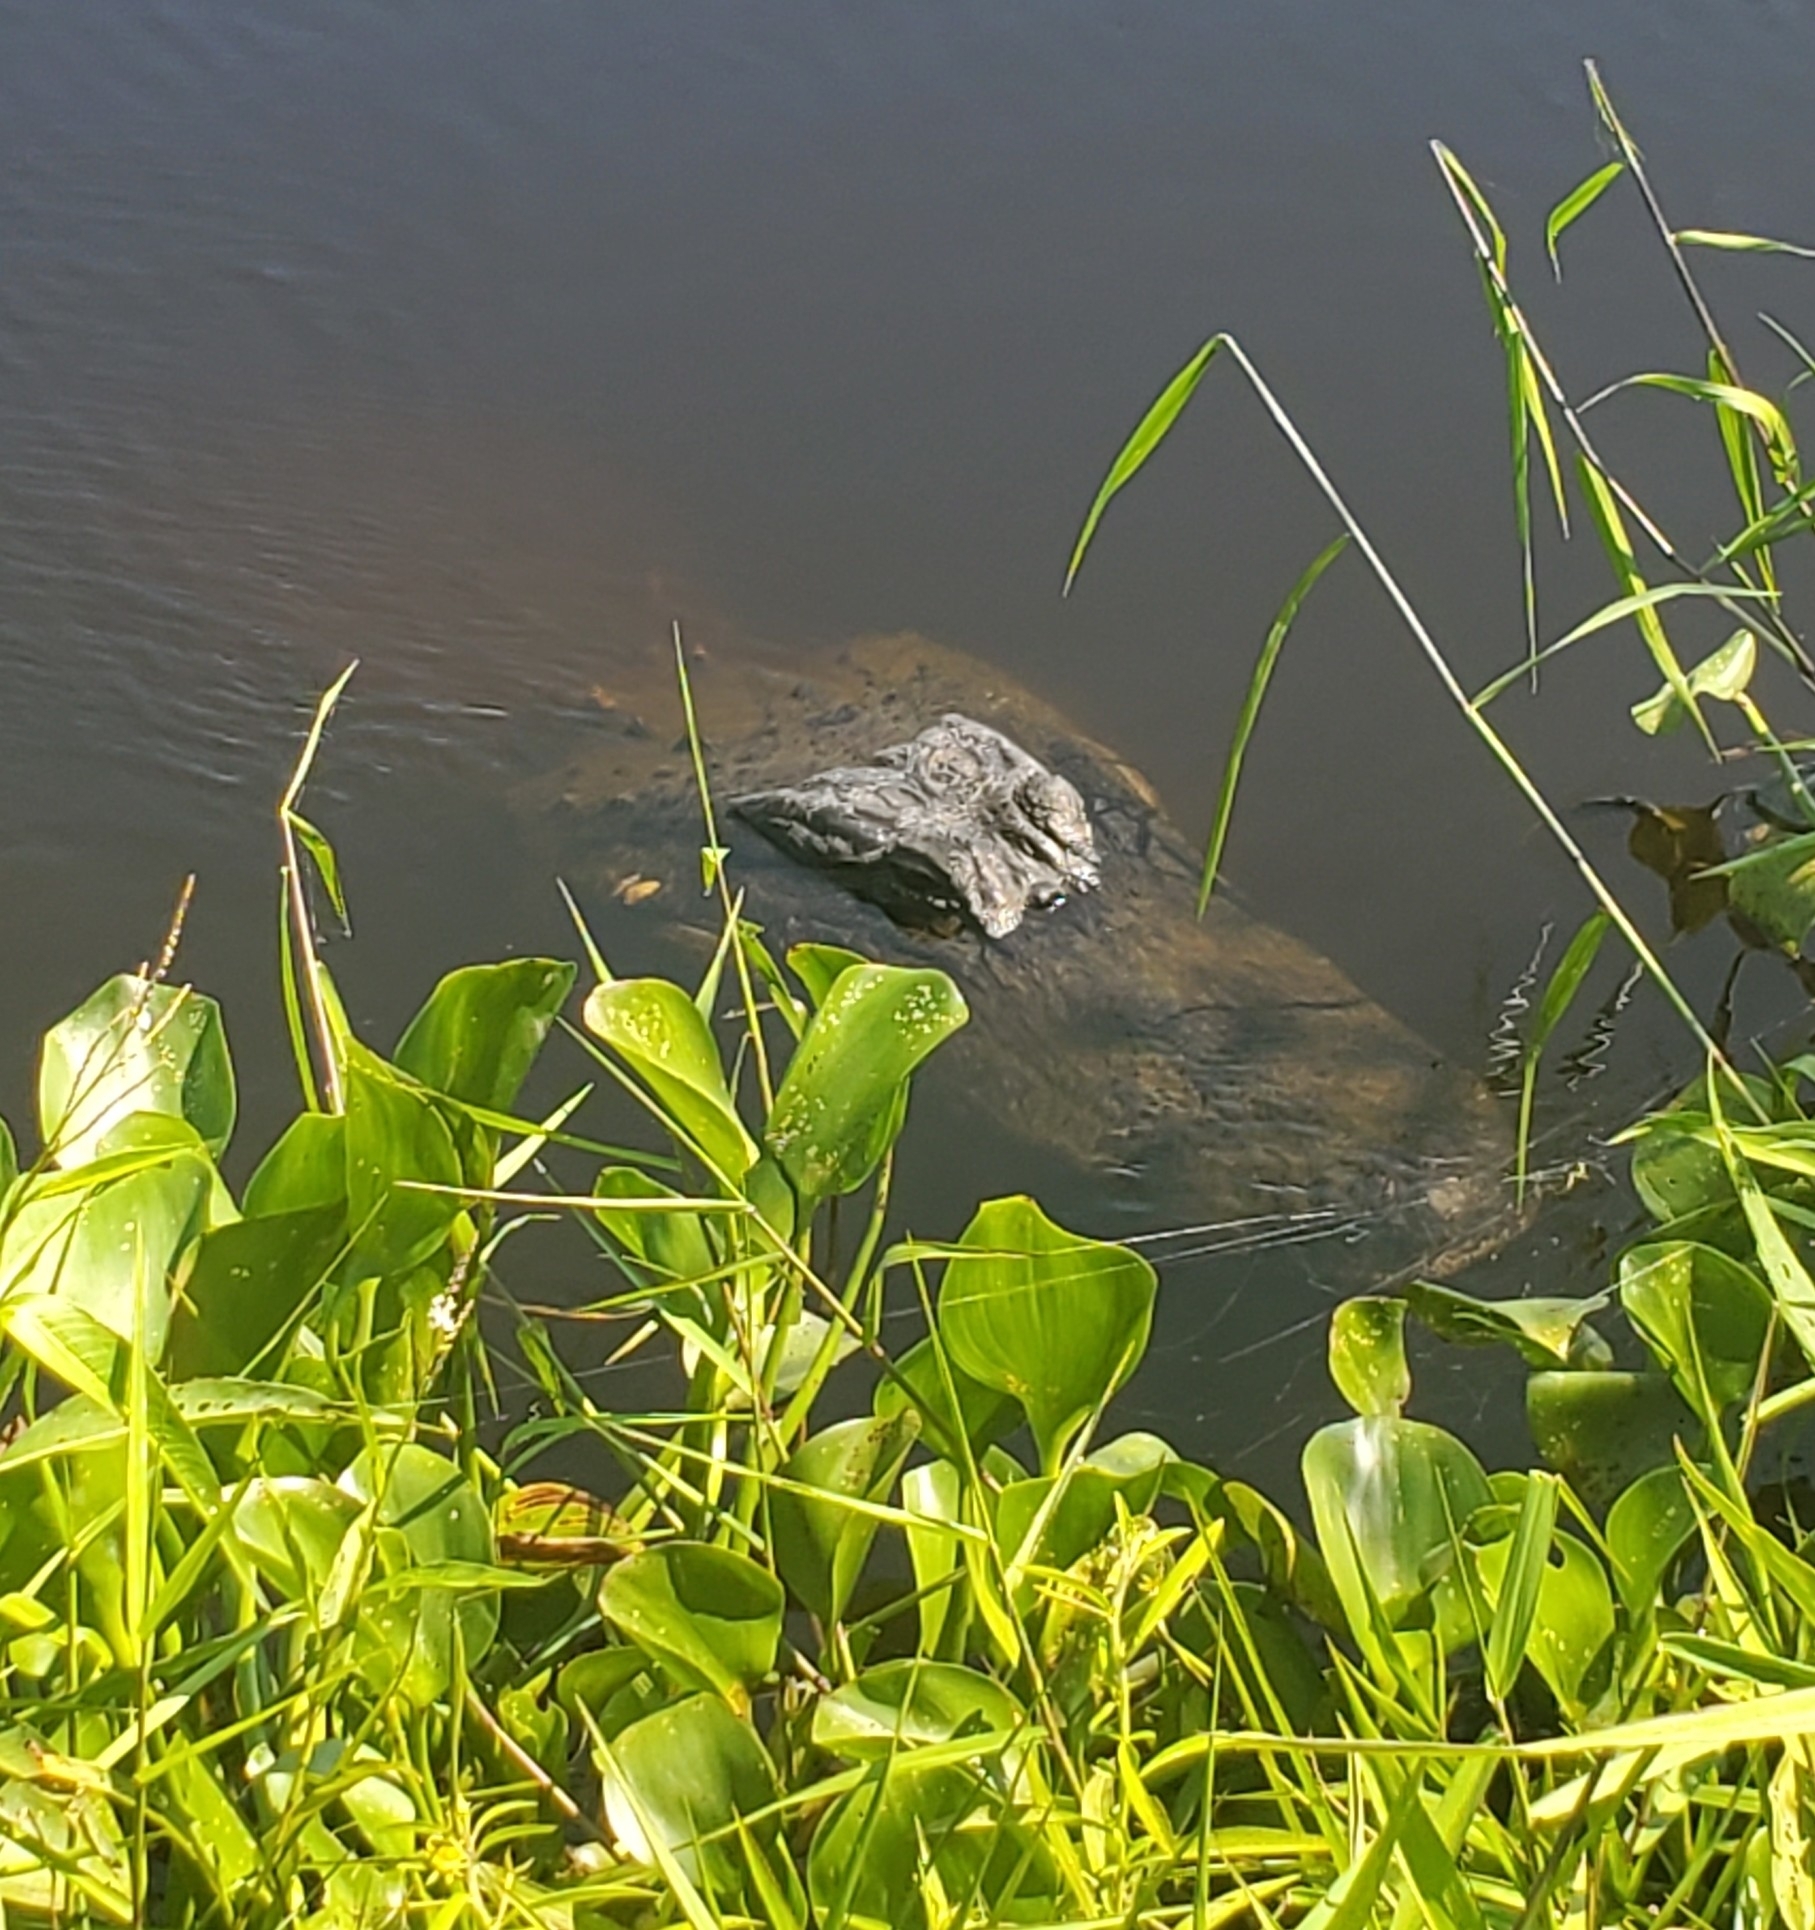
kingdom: Animalia
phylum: Chordata
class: Crocodylia
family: Alligatoridae
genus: Alligator
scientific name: Alligator mississippiensis
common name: American alligator
